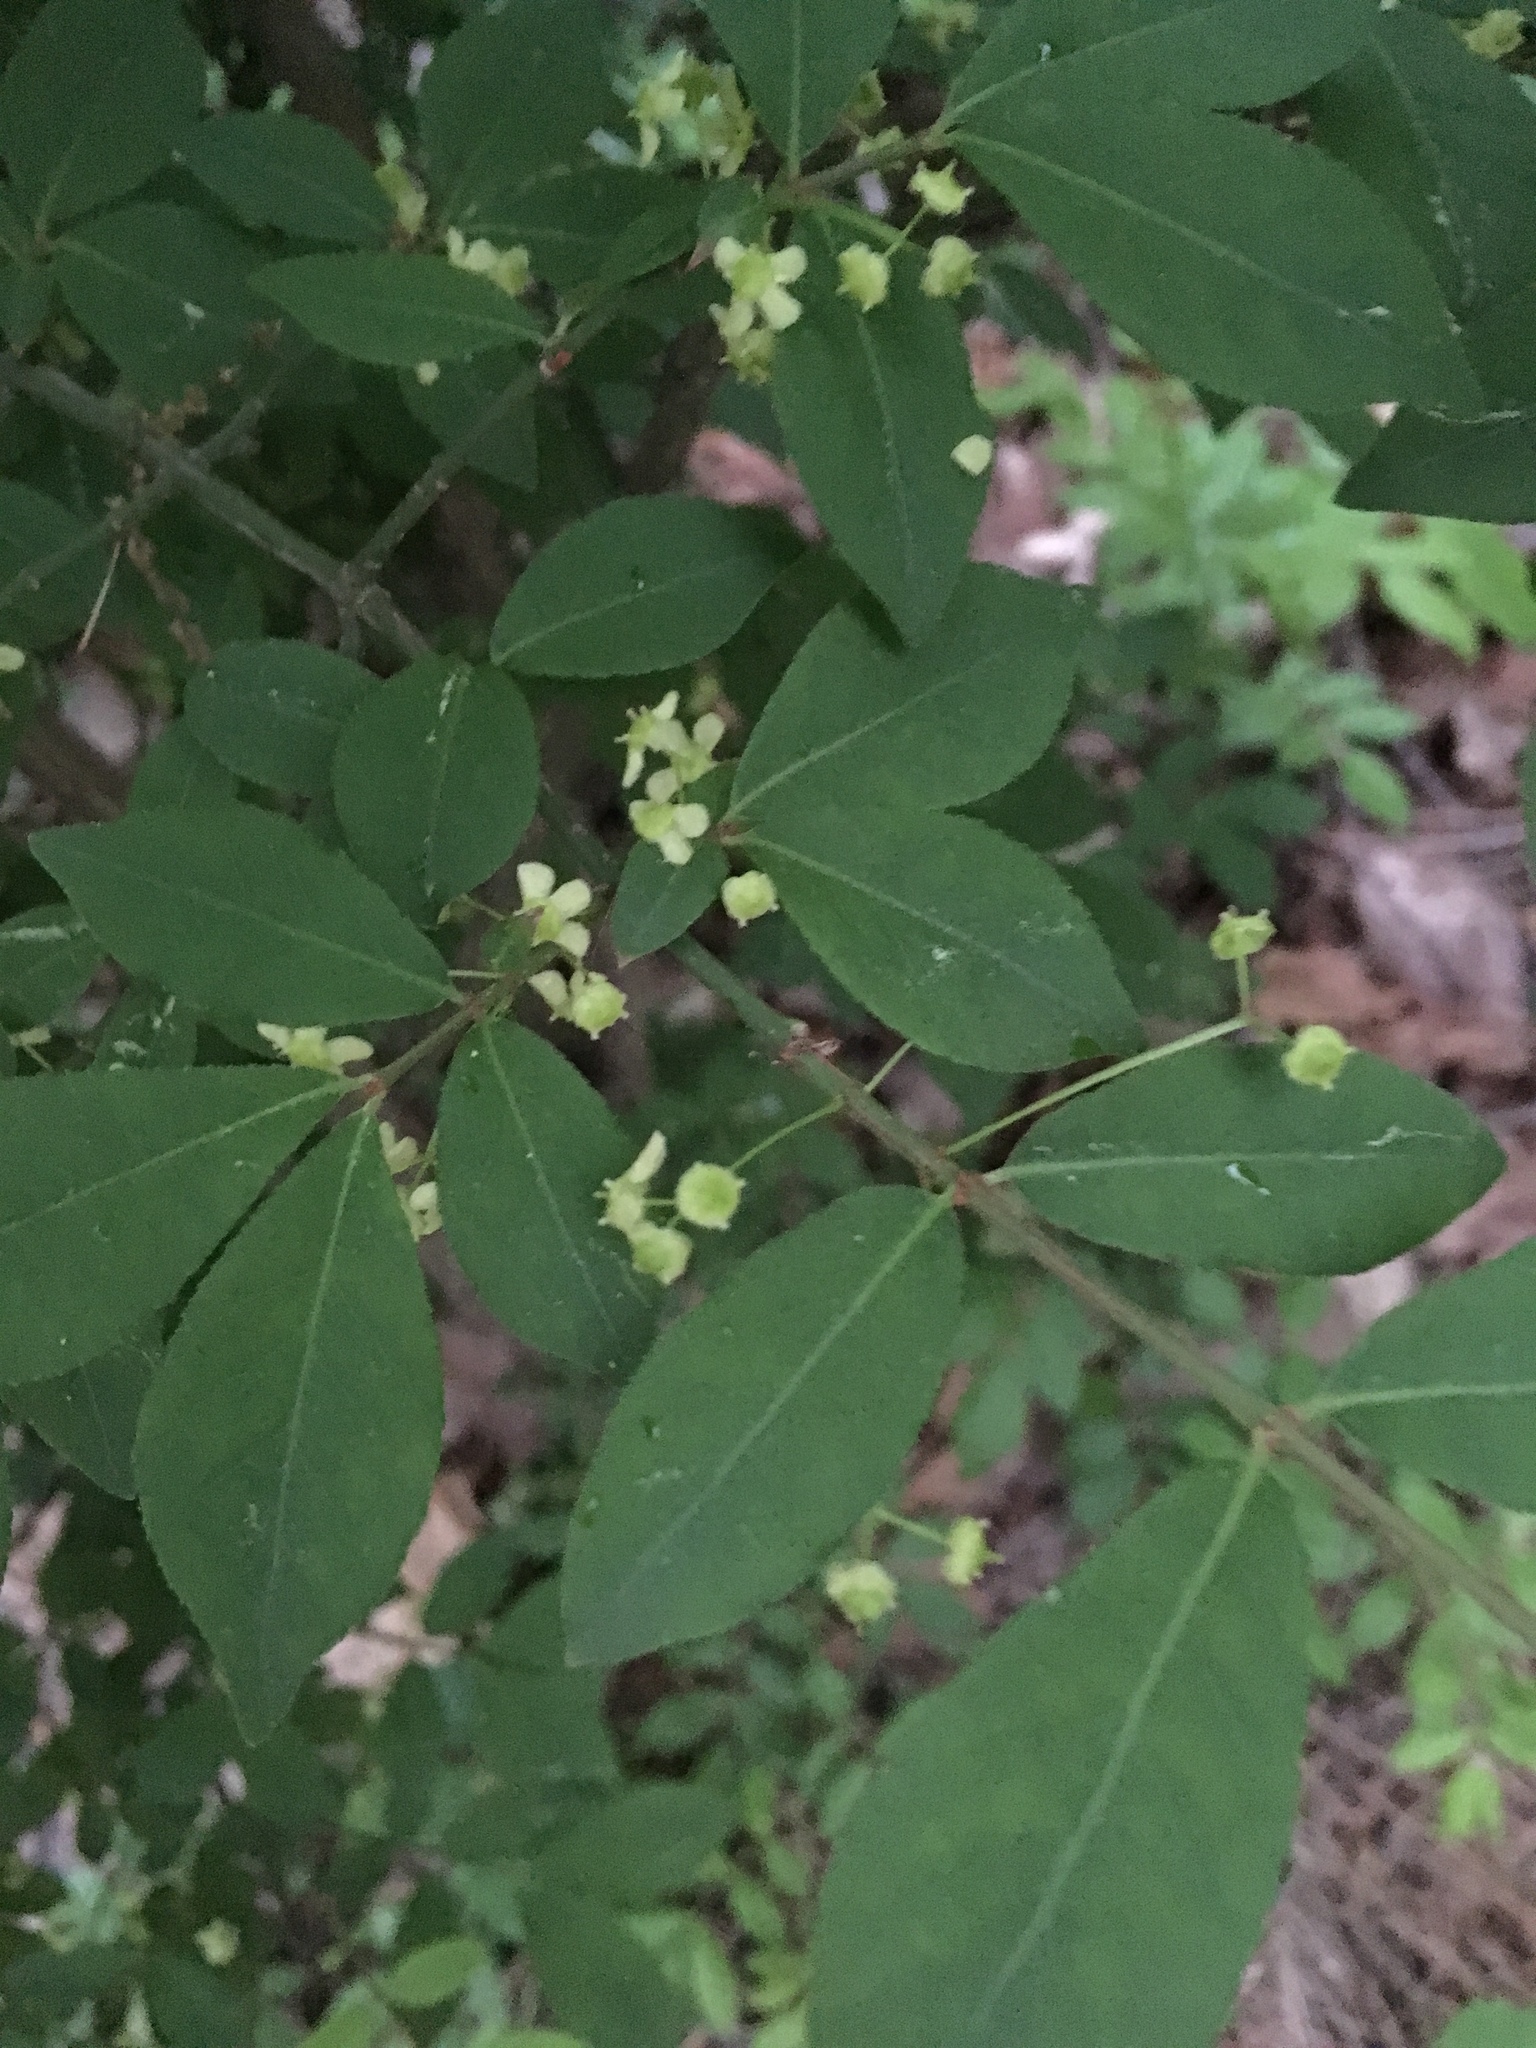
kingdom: Plantae
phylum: Tracheophyta
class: Magnoliopsida
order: Celastrales
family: Celastraceae
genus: Euonymus
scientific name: Euonymus alatus
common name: Winged euonymus
